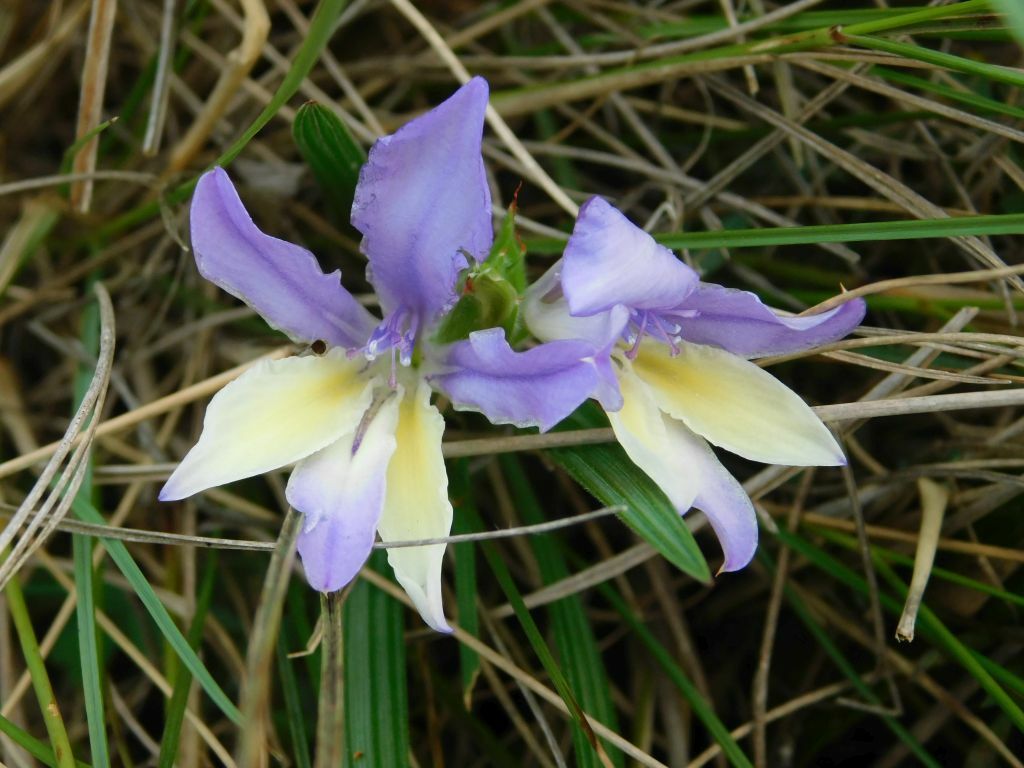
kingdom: Plantae
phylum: Tracheophyta
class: Liliopsida
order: Asparagales
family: Iridaceae
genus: Babiana
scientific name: Babiana patula
